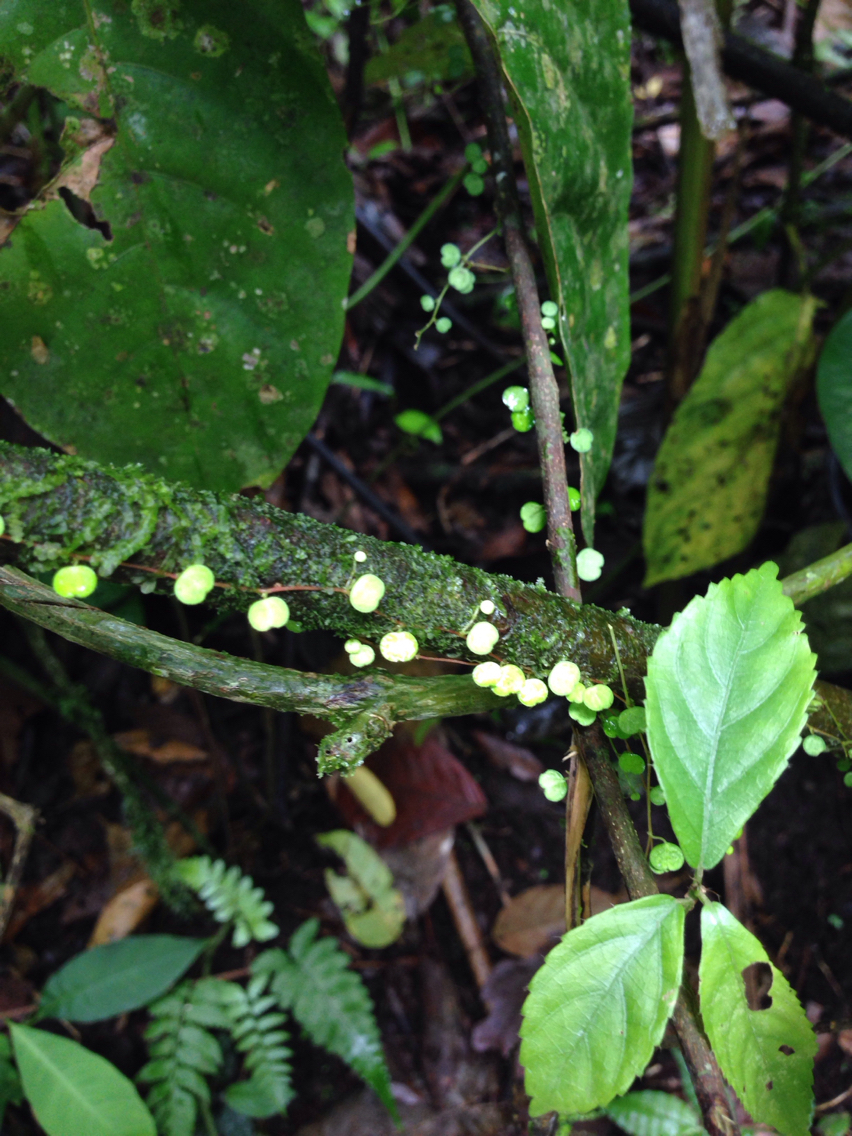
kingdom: Plantae
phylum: Tracheophyta
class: Magnoliopsida
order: Piperales
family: Piperaceae
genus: Peperomia
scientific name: Peperomia emarginella
